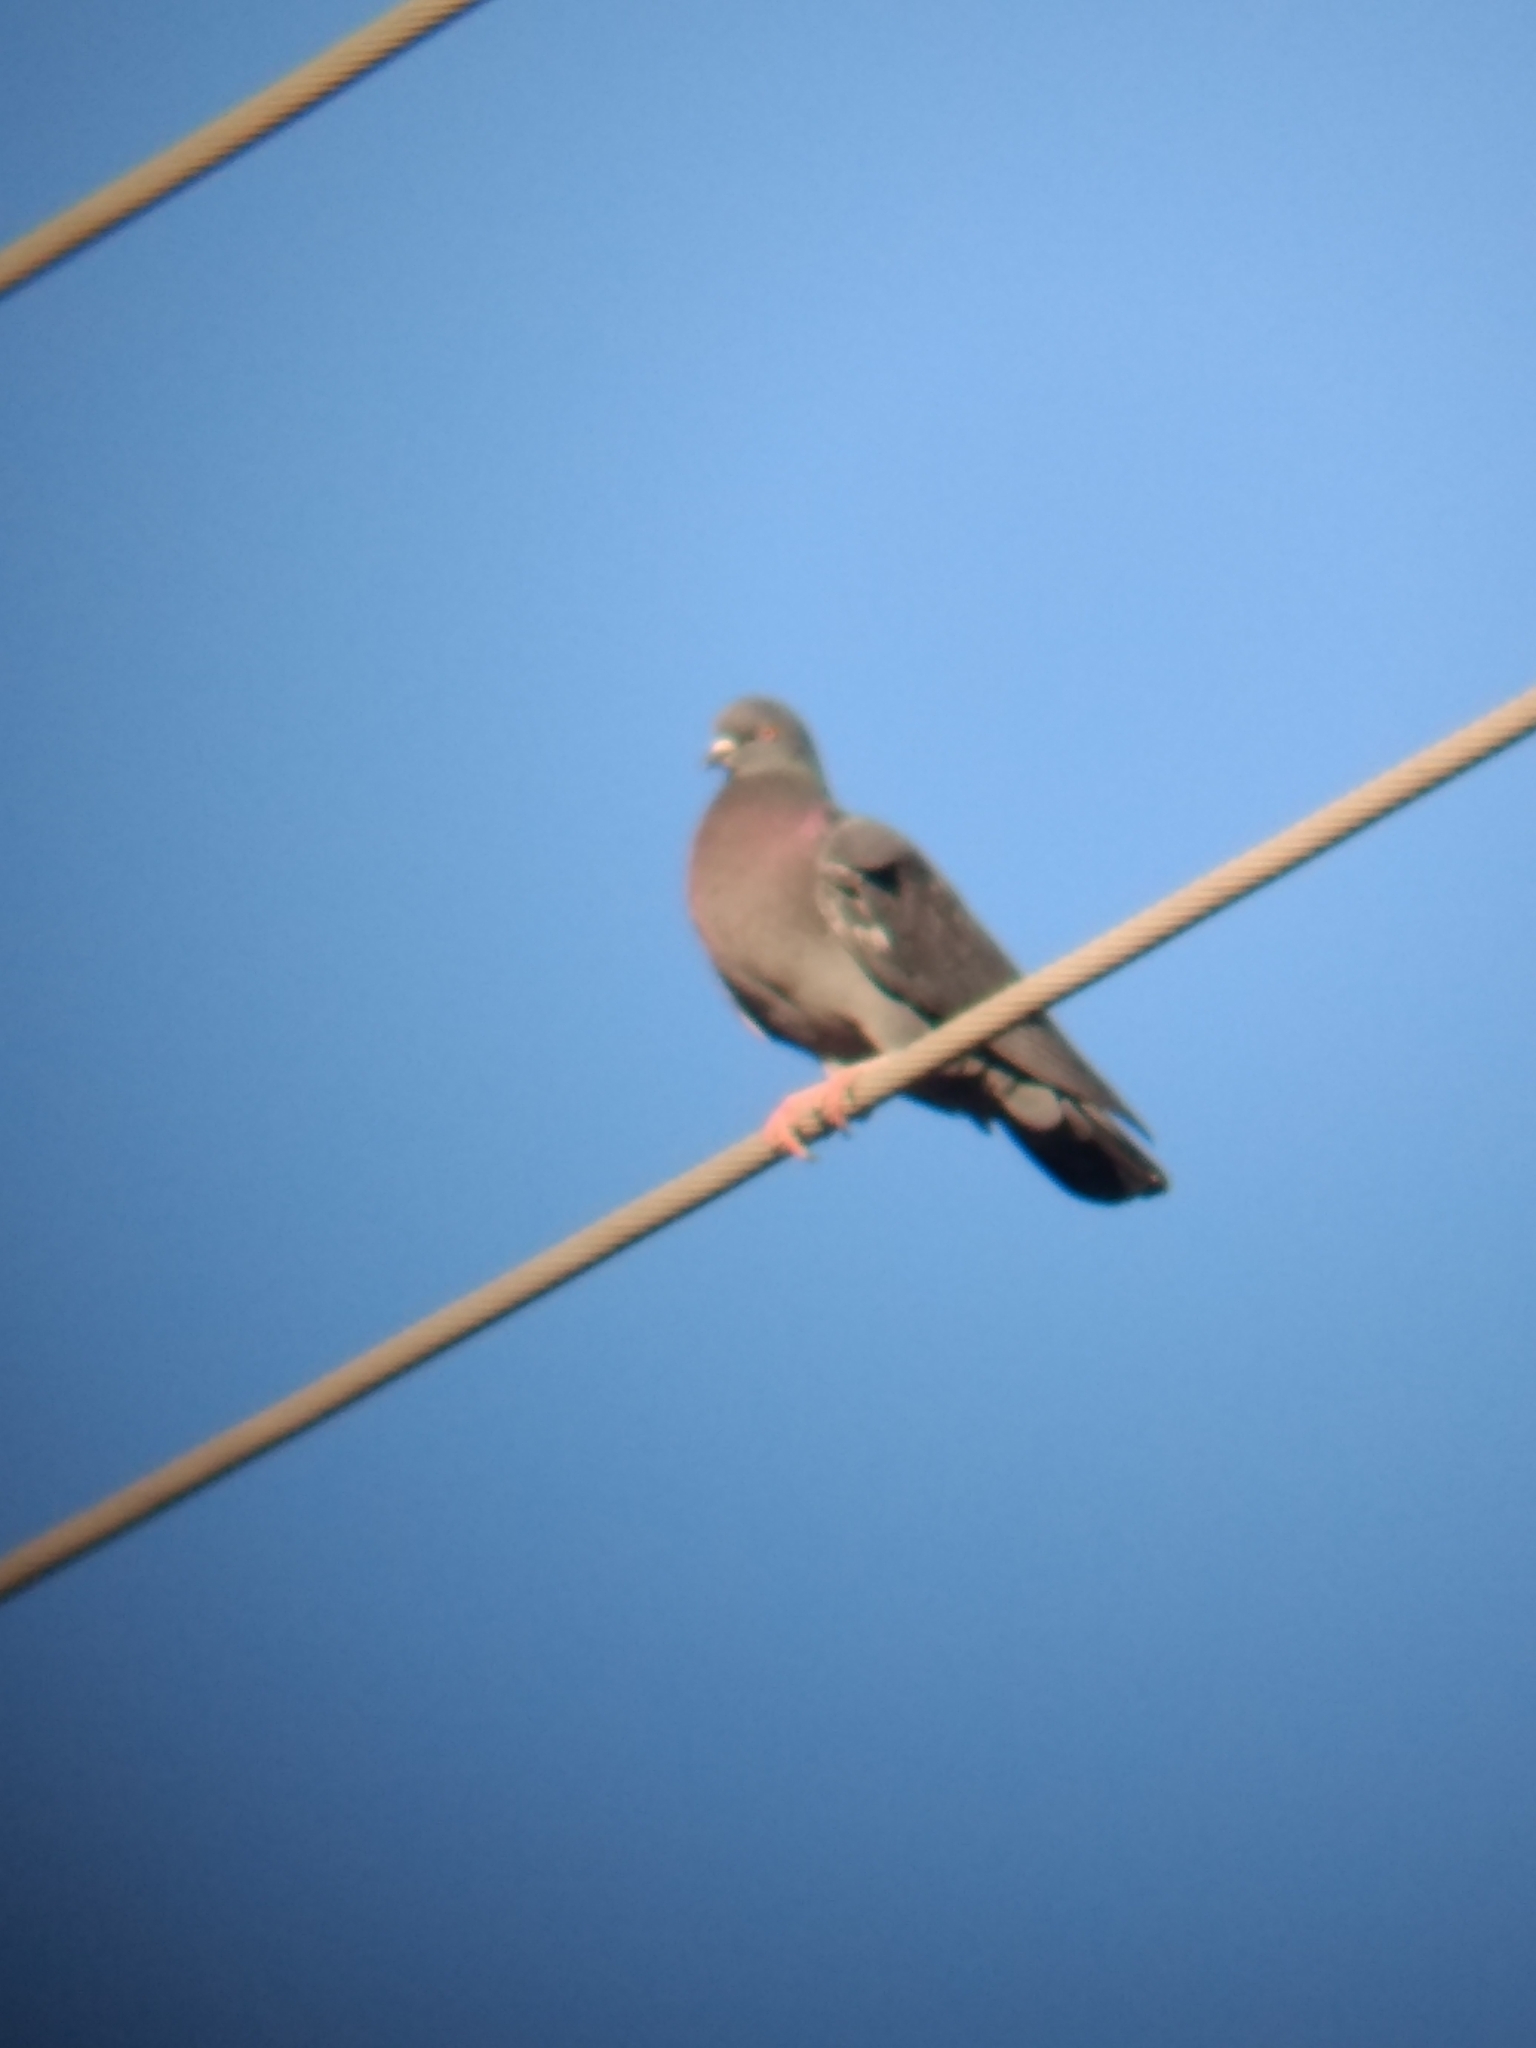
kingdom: Animalia
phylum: Chordata
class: Aves
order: Columbiformes
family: Columbidae
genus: Columba
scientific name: Columba livia
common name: Rock pigeon
